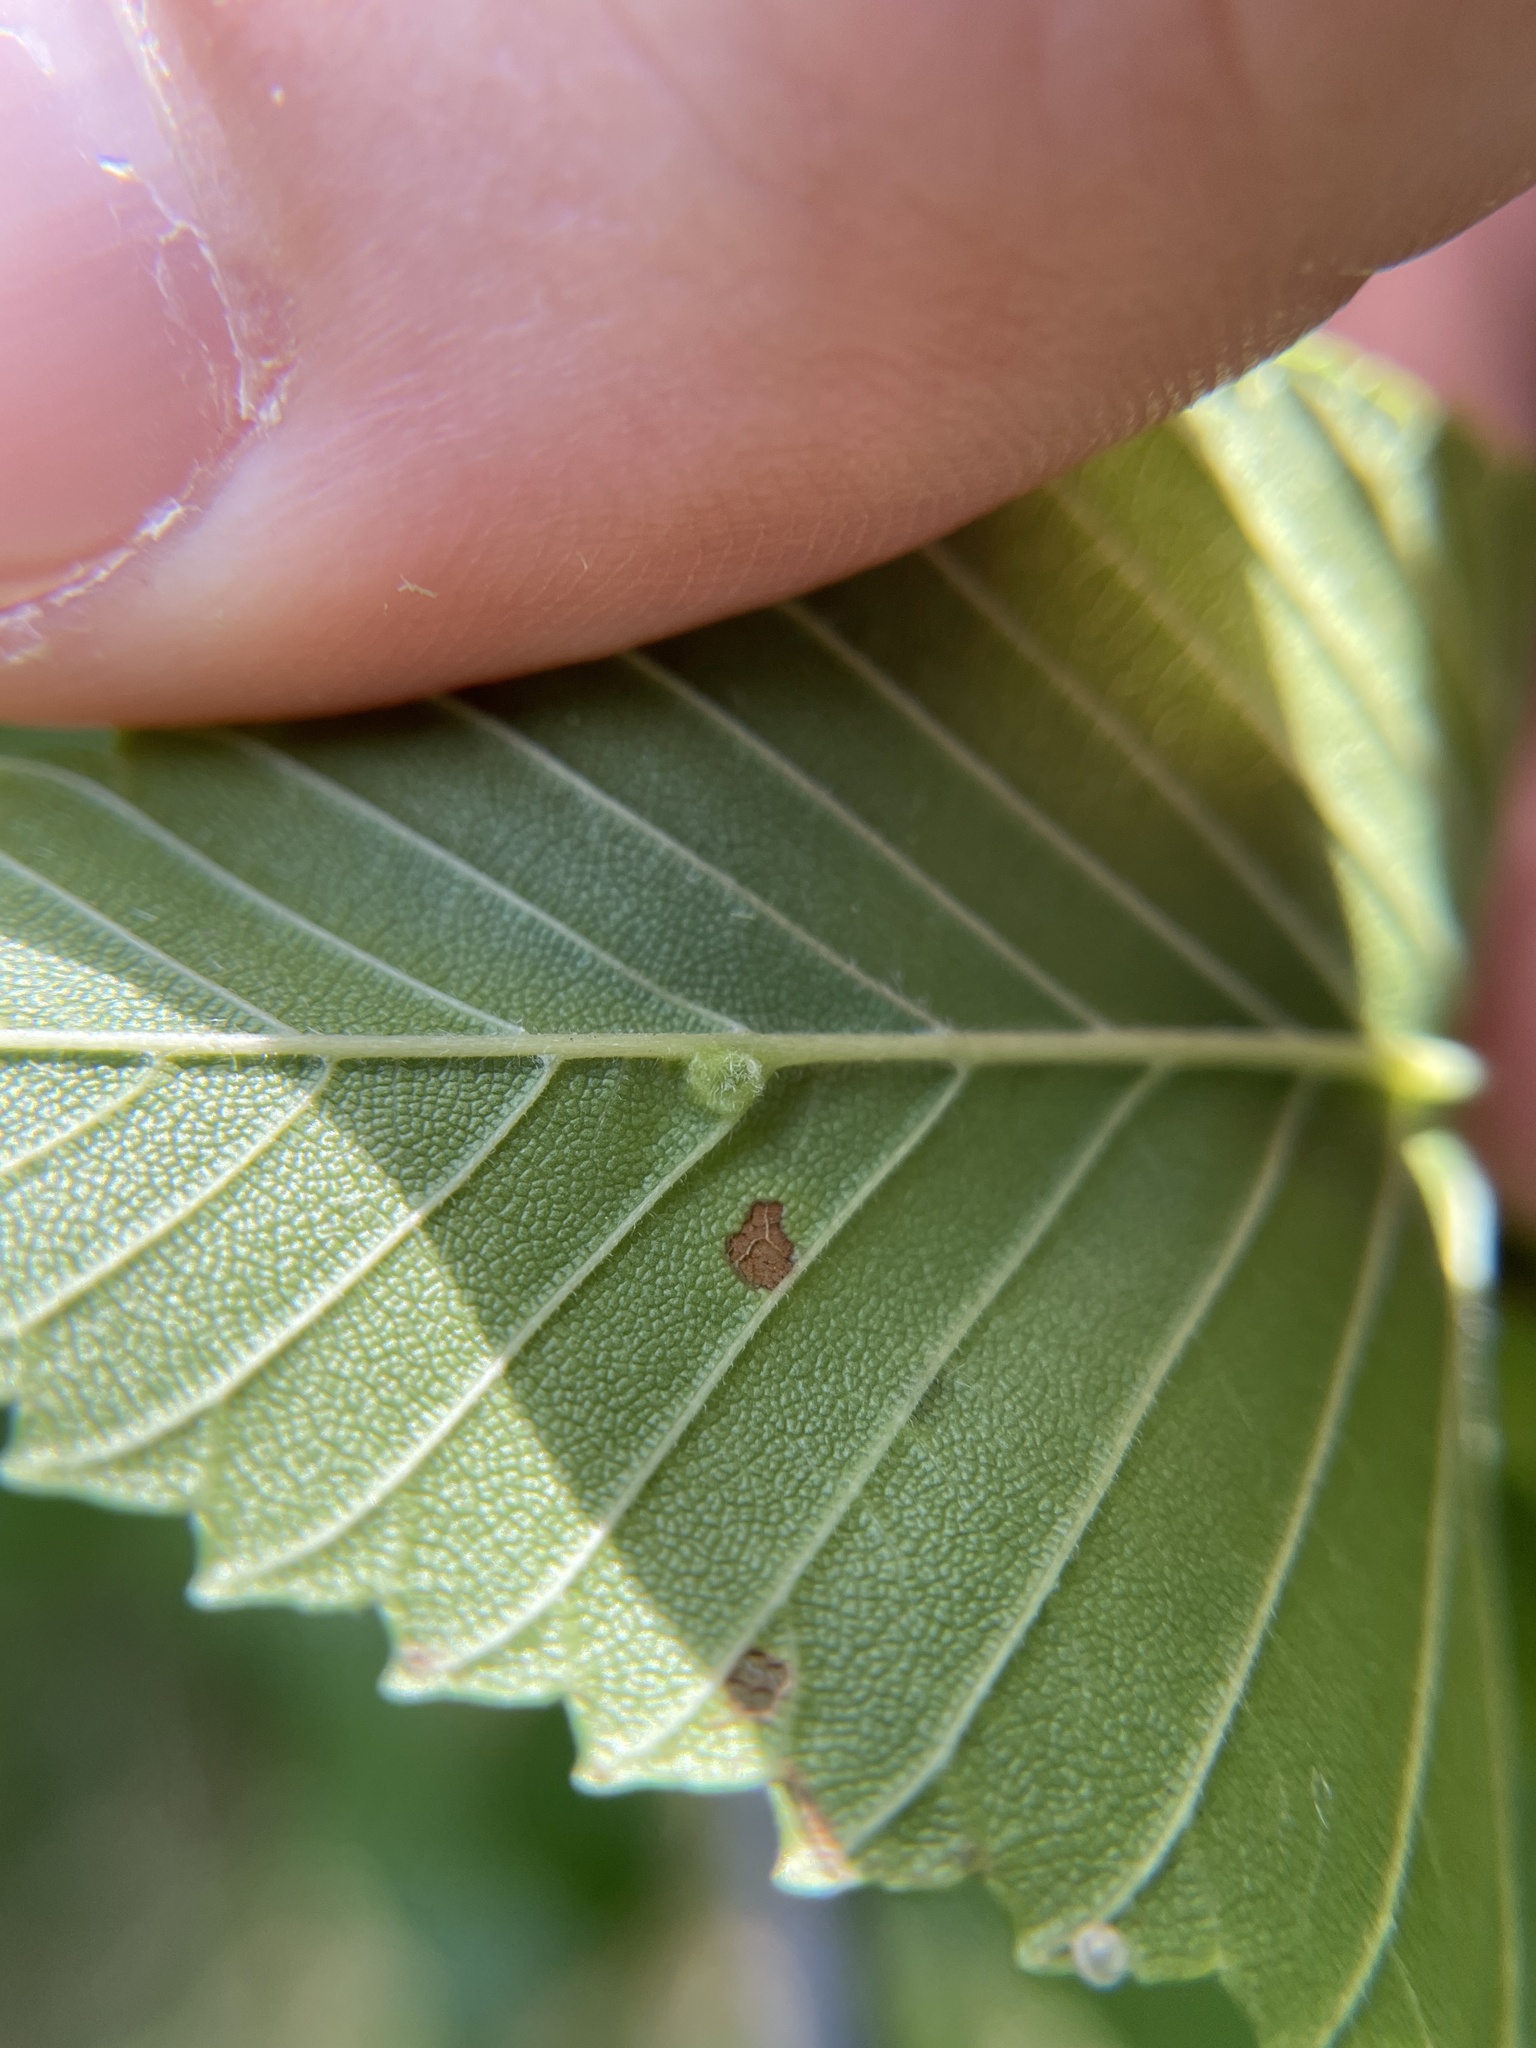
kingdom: Animalia
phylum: Arthropoda
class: Arachnida
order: Trombidiformes
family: Eriophyidae
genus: Aceria
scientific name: Aceria
